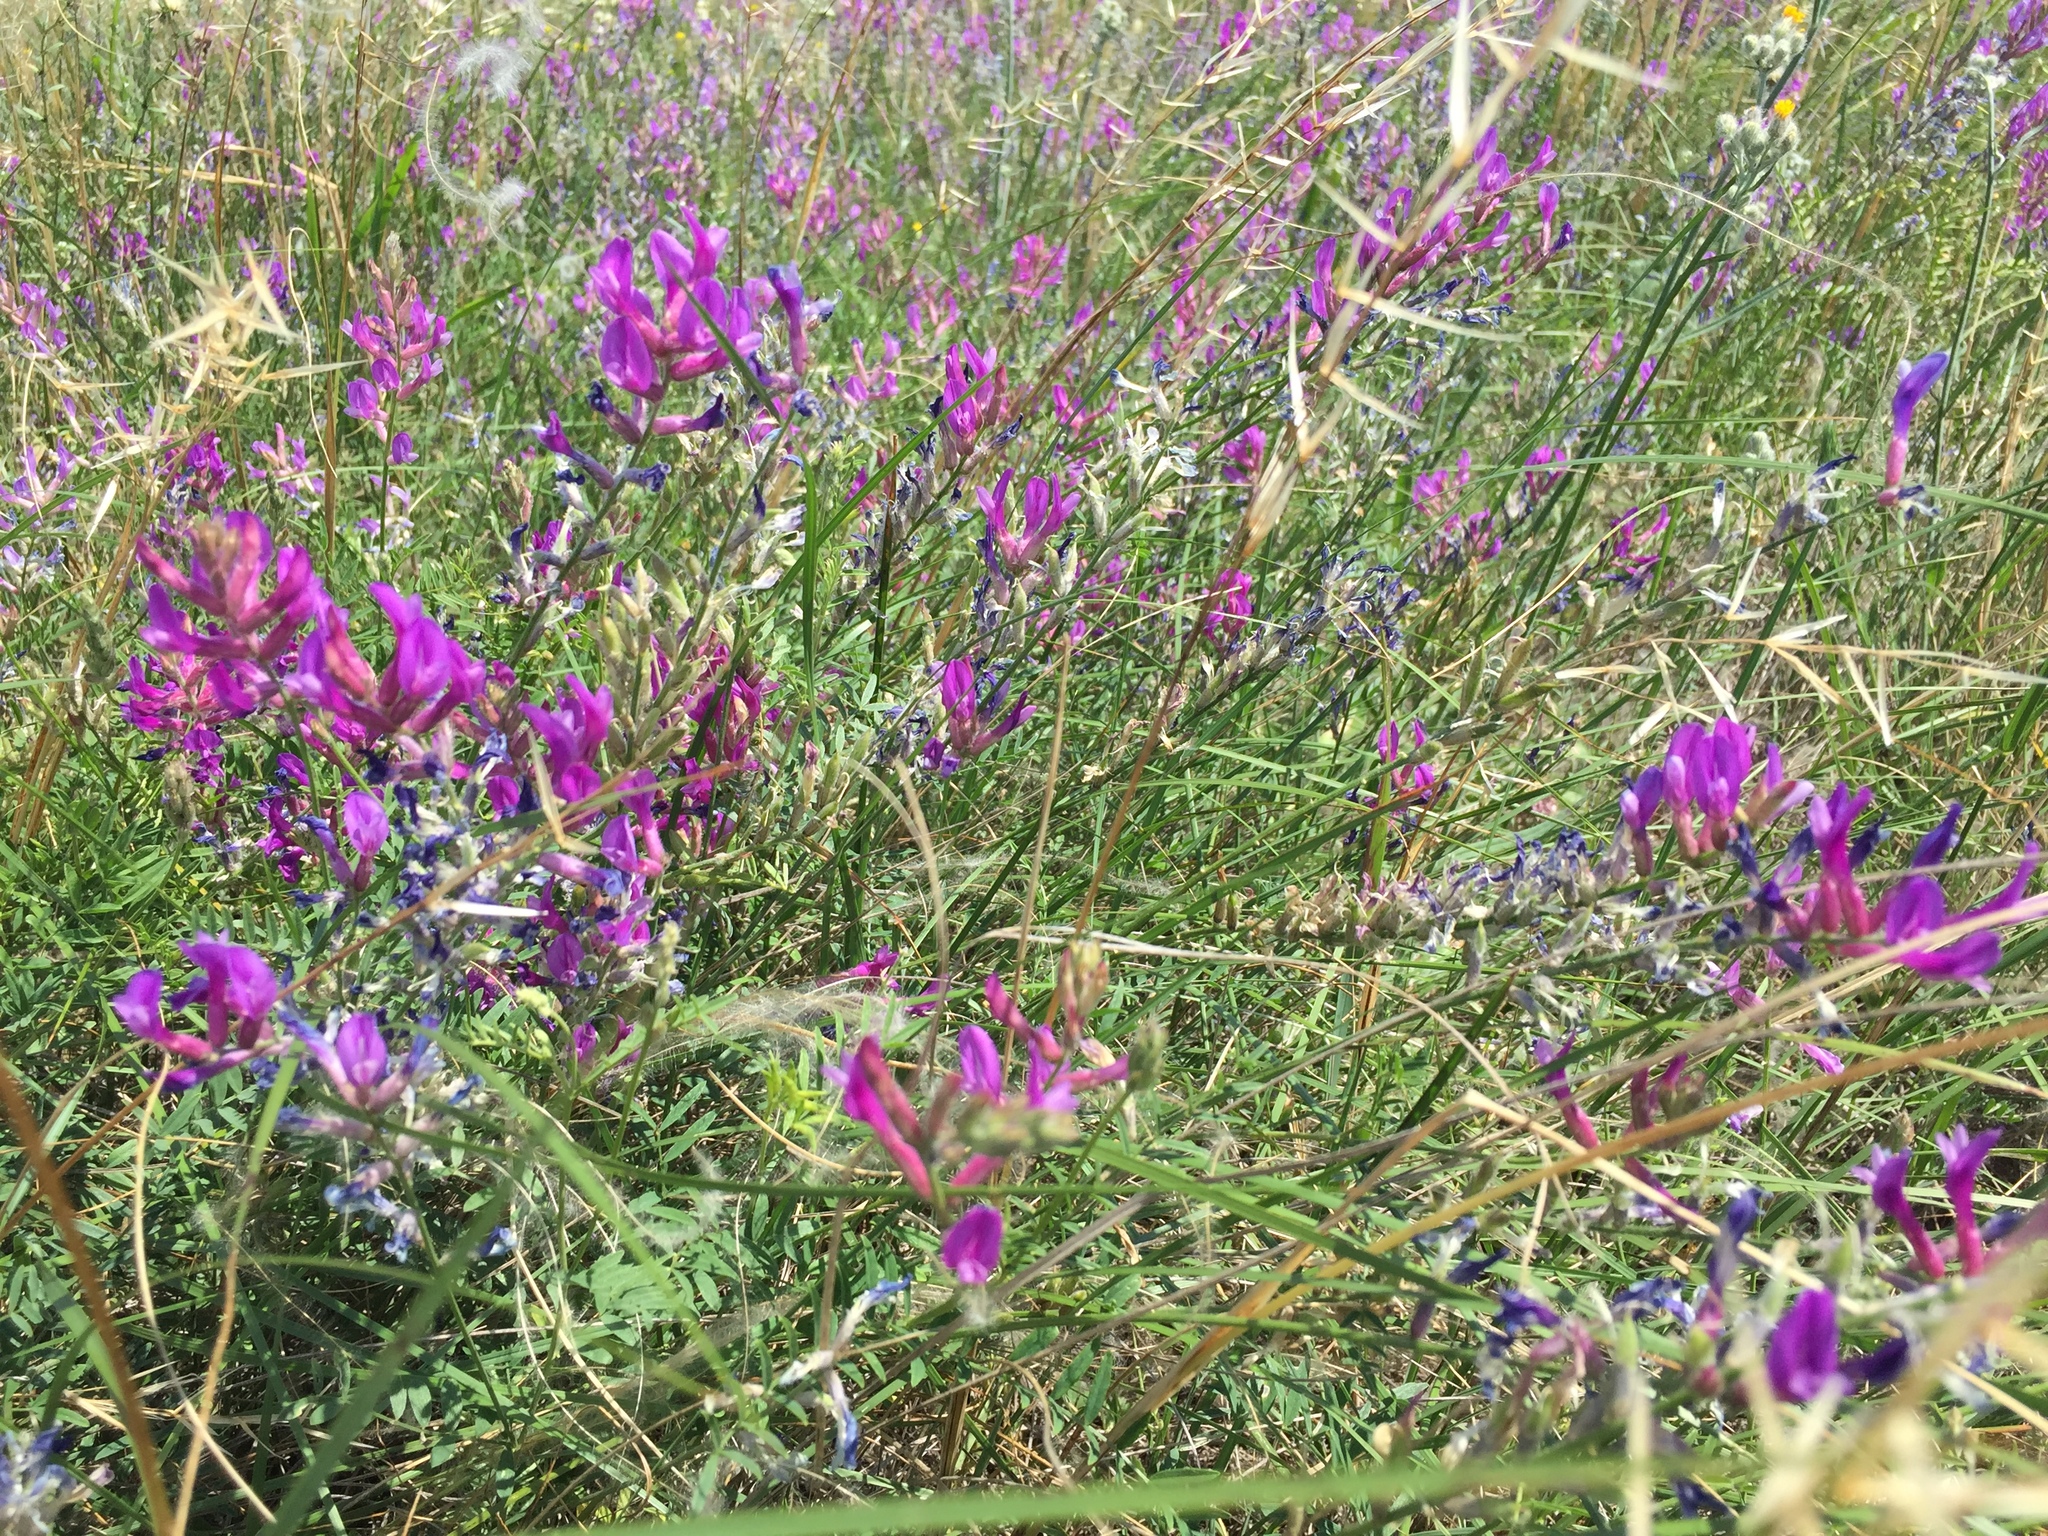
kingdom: Plantae
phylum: Tracheophyta
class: Magnoliopsida
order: Fabales
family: Fabaceae
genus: Astragalus
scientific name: Astragalus varius
